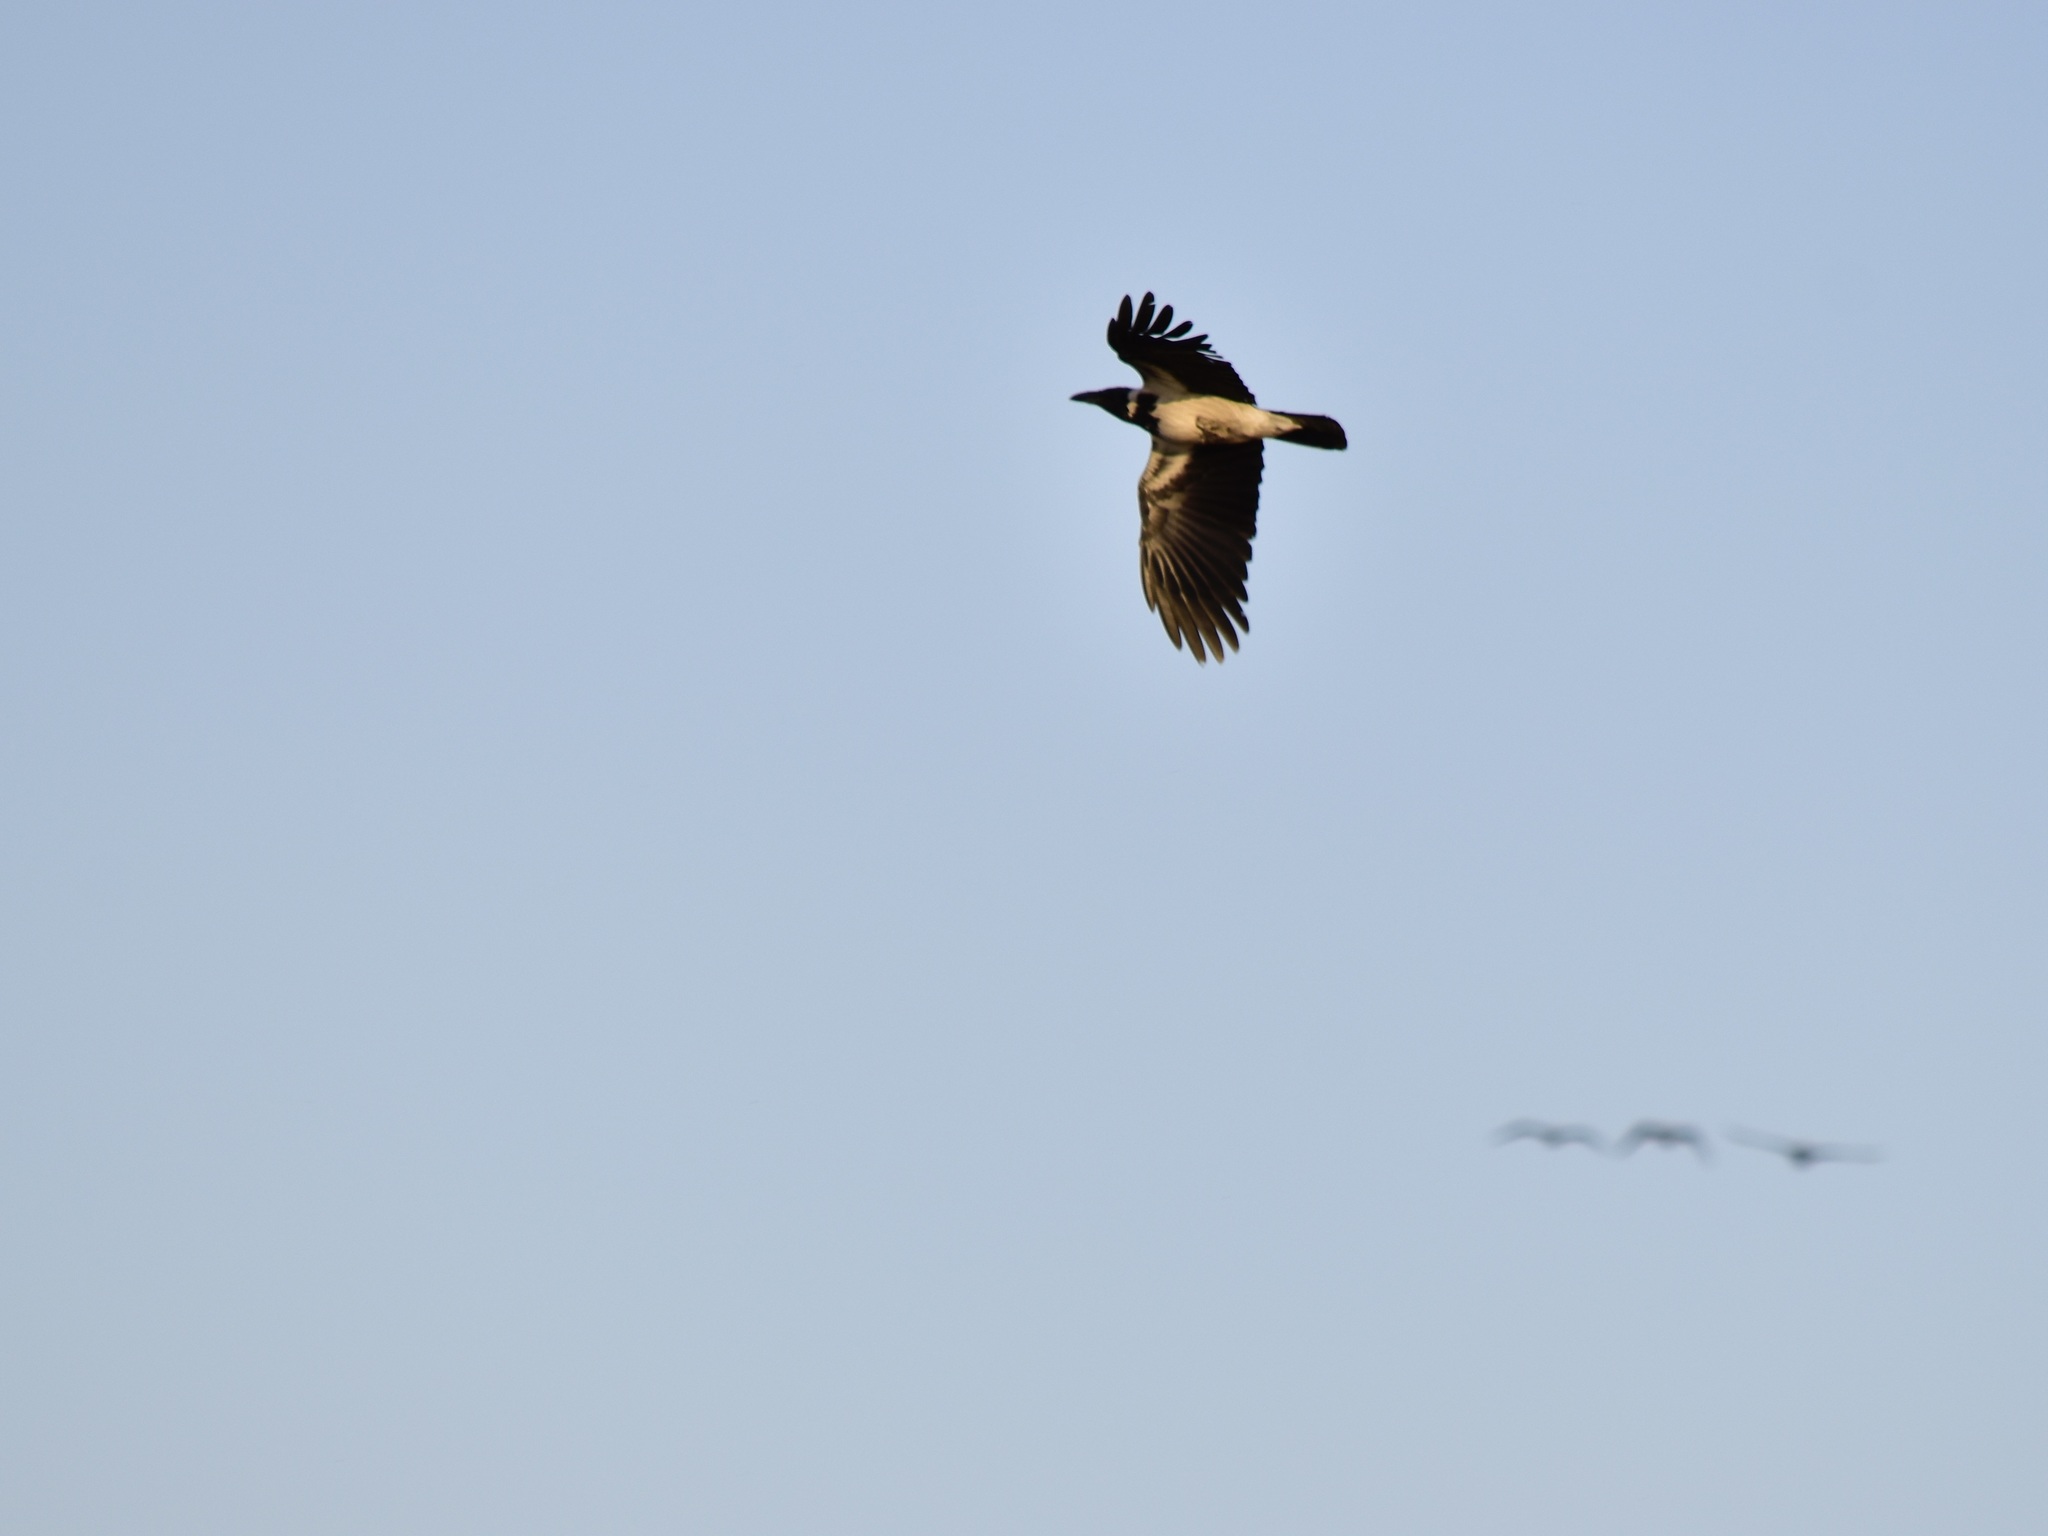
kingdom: Animalia
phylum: Chordata
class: Aves
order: Passeriformes
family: Corvidae
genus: Corvus
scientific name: Corvus cornix
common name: Hooded crow
